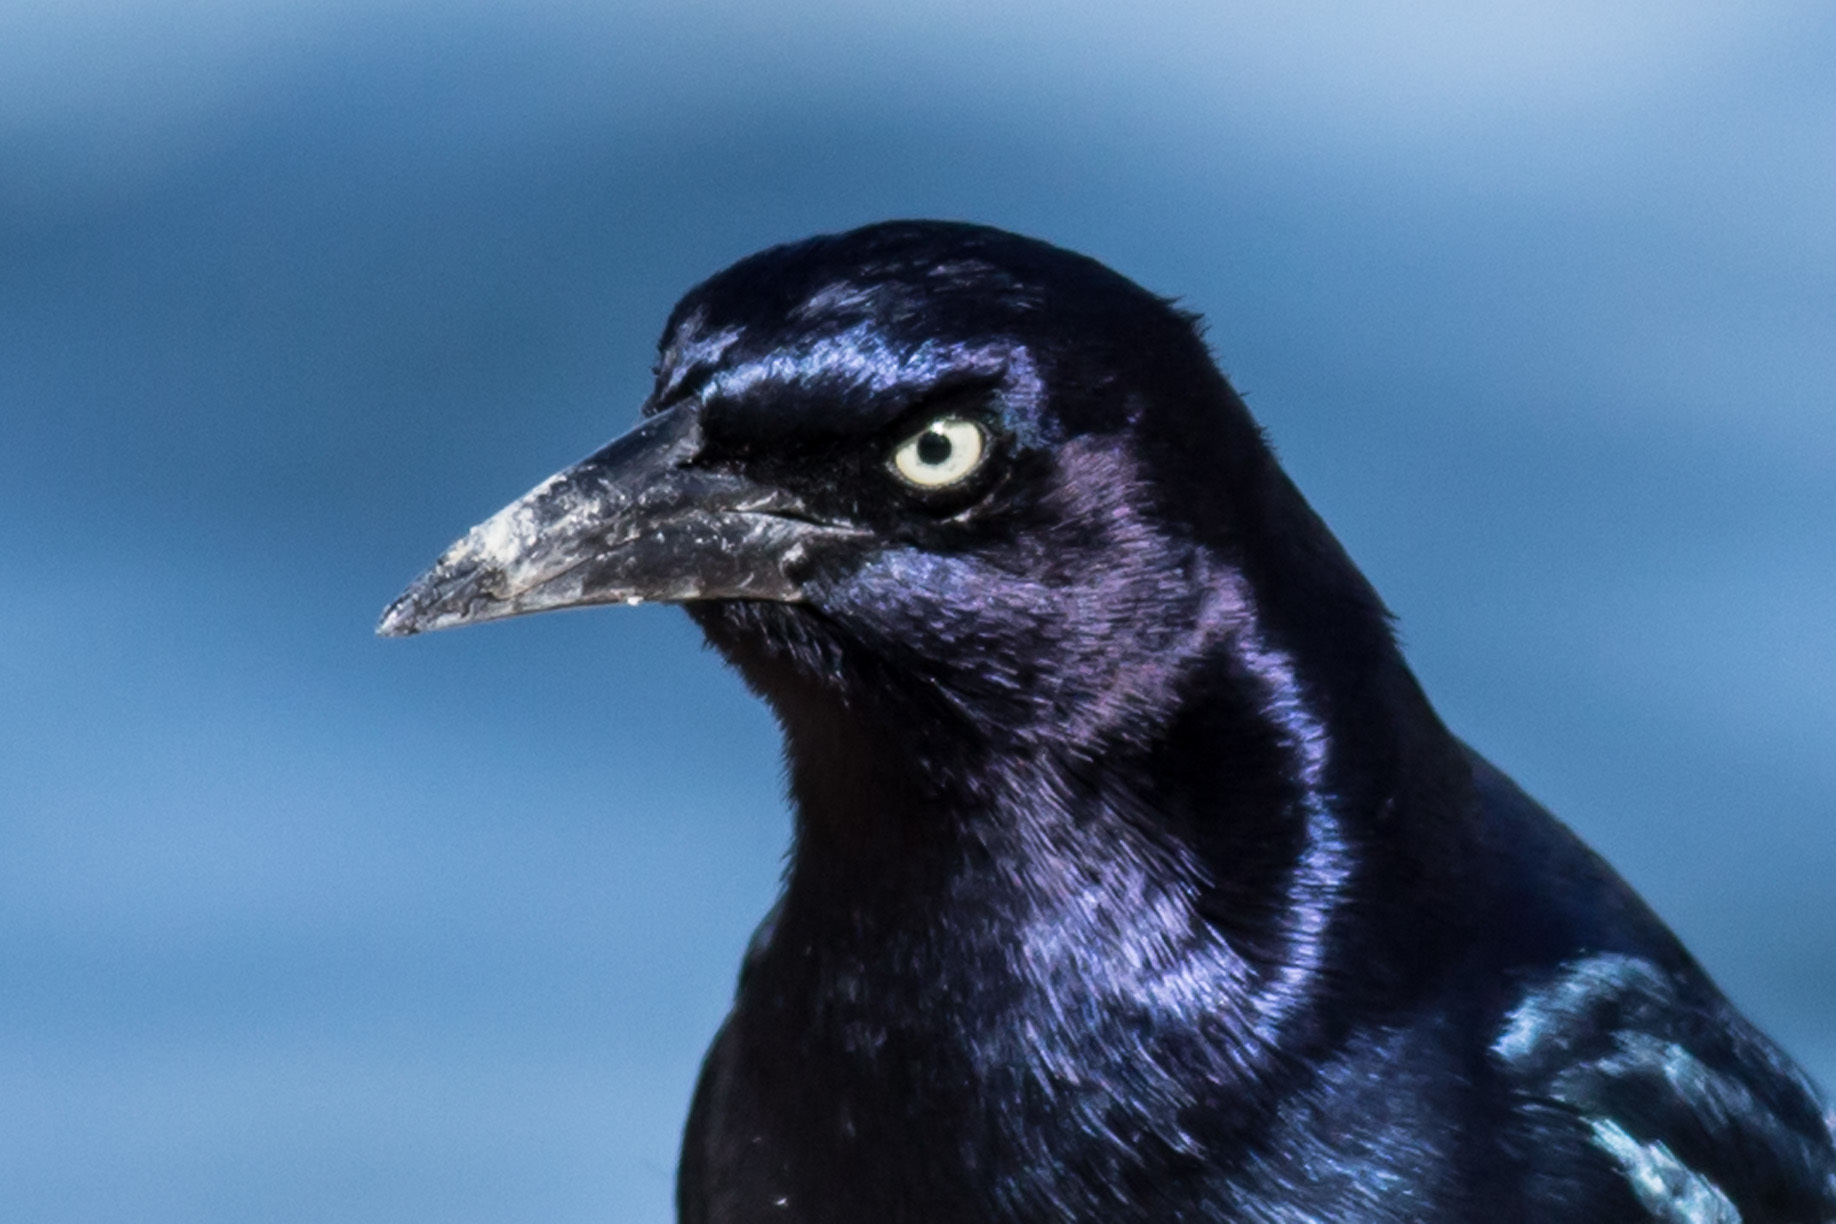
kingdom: Animalia
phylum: Chordata
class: Aves
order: Passeriformes
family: Icteridae
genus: Quiscalus
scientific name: Quiscalus major
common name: Boat-tailed grackle
